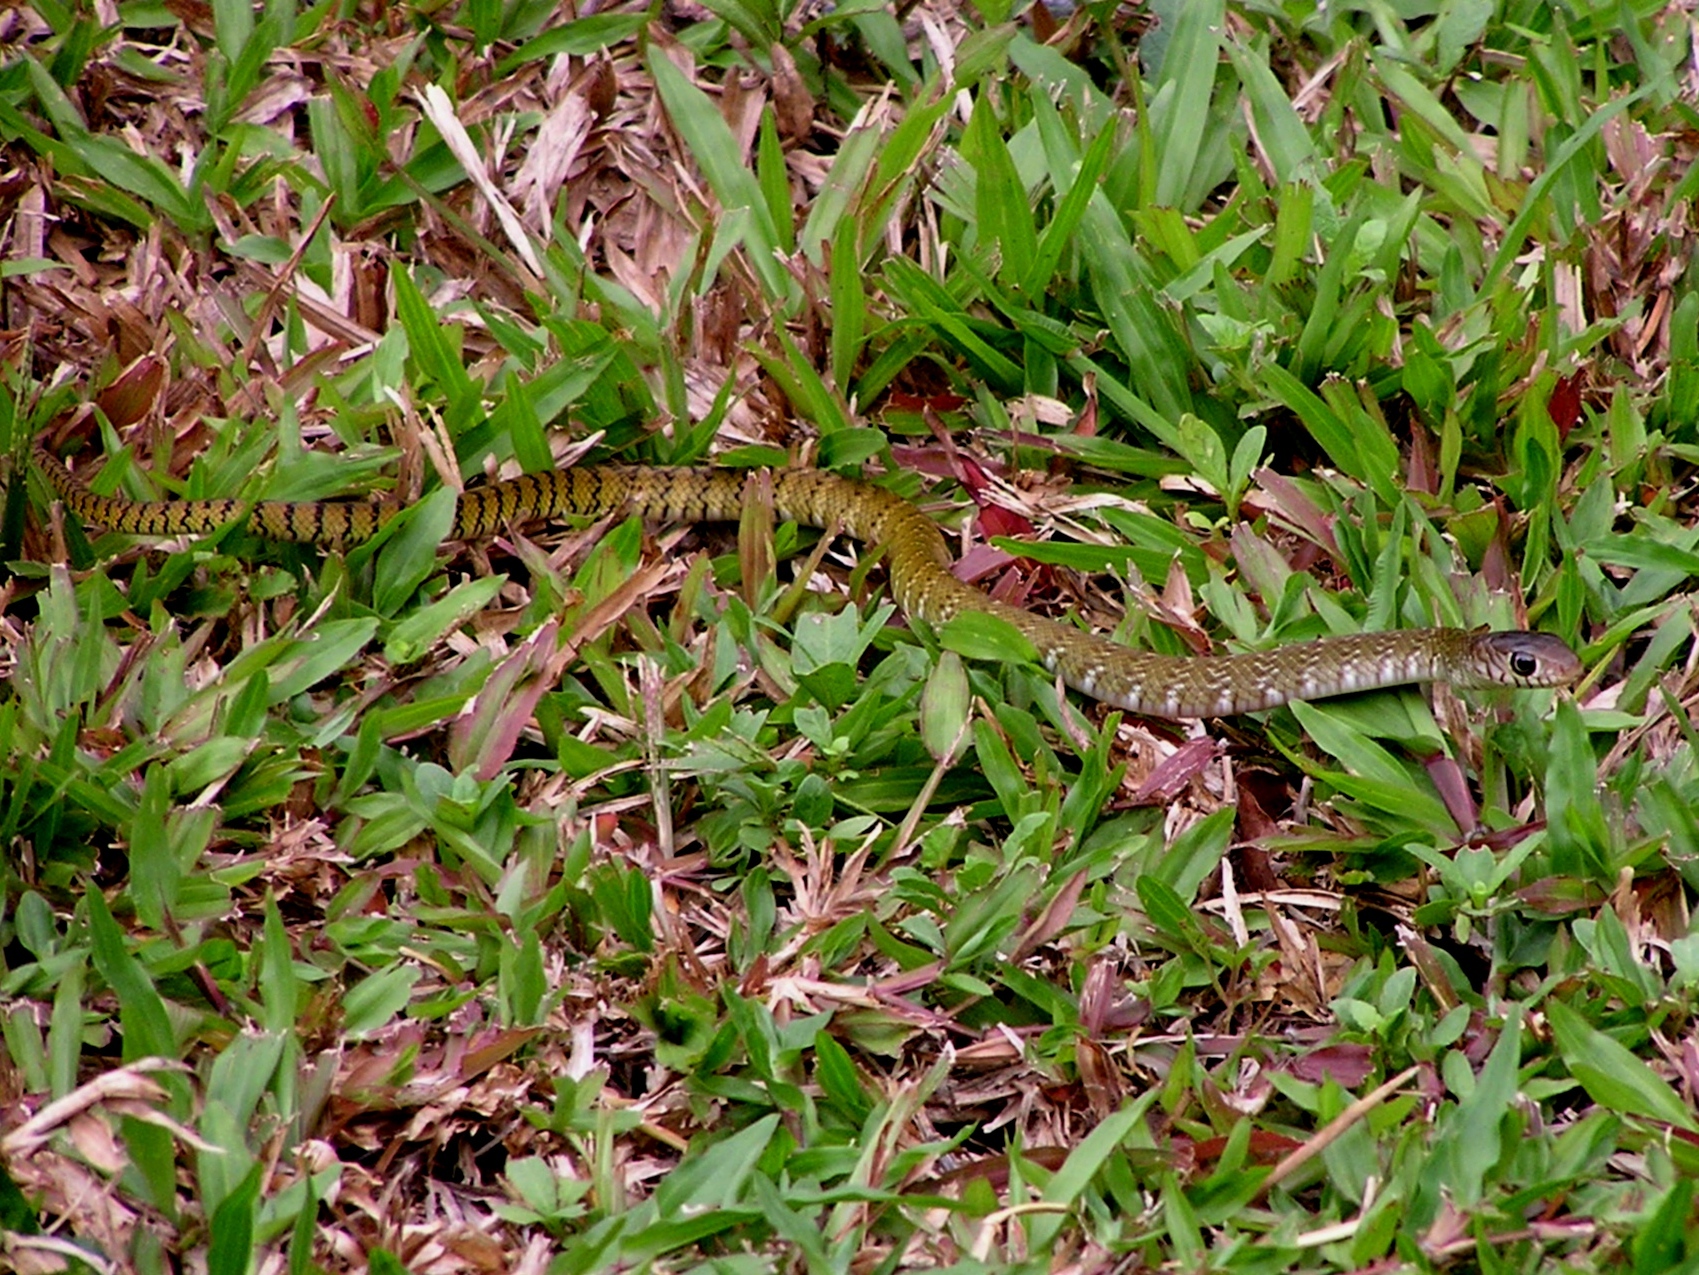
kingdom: Animalia
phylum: Chordata
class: Squamata
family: Colubridae
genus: Ptyas
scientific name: Ptyas mucosa
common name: Oriental ratsnake
